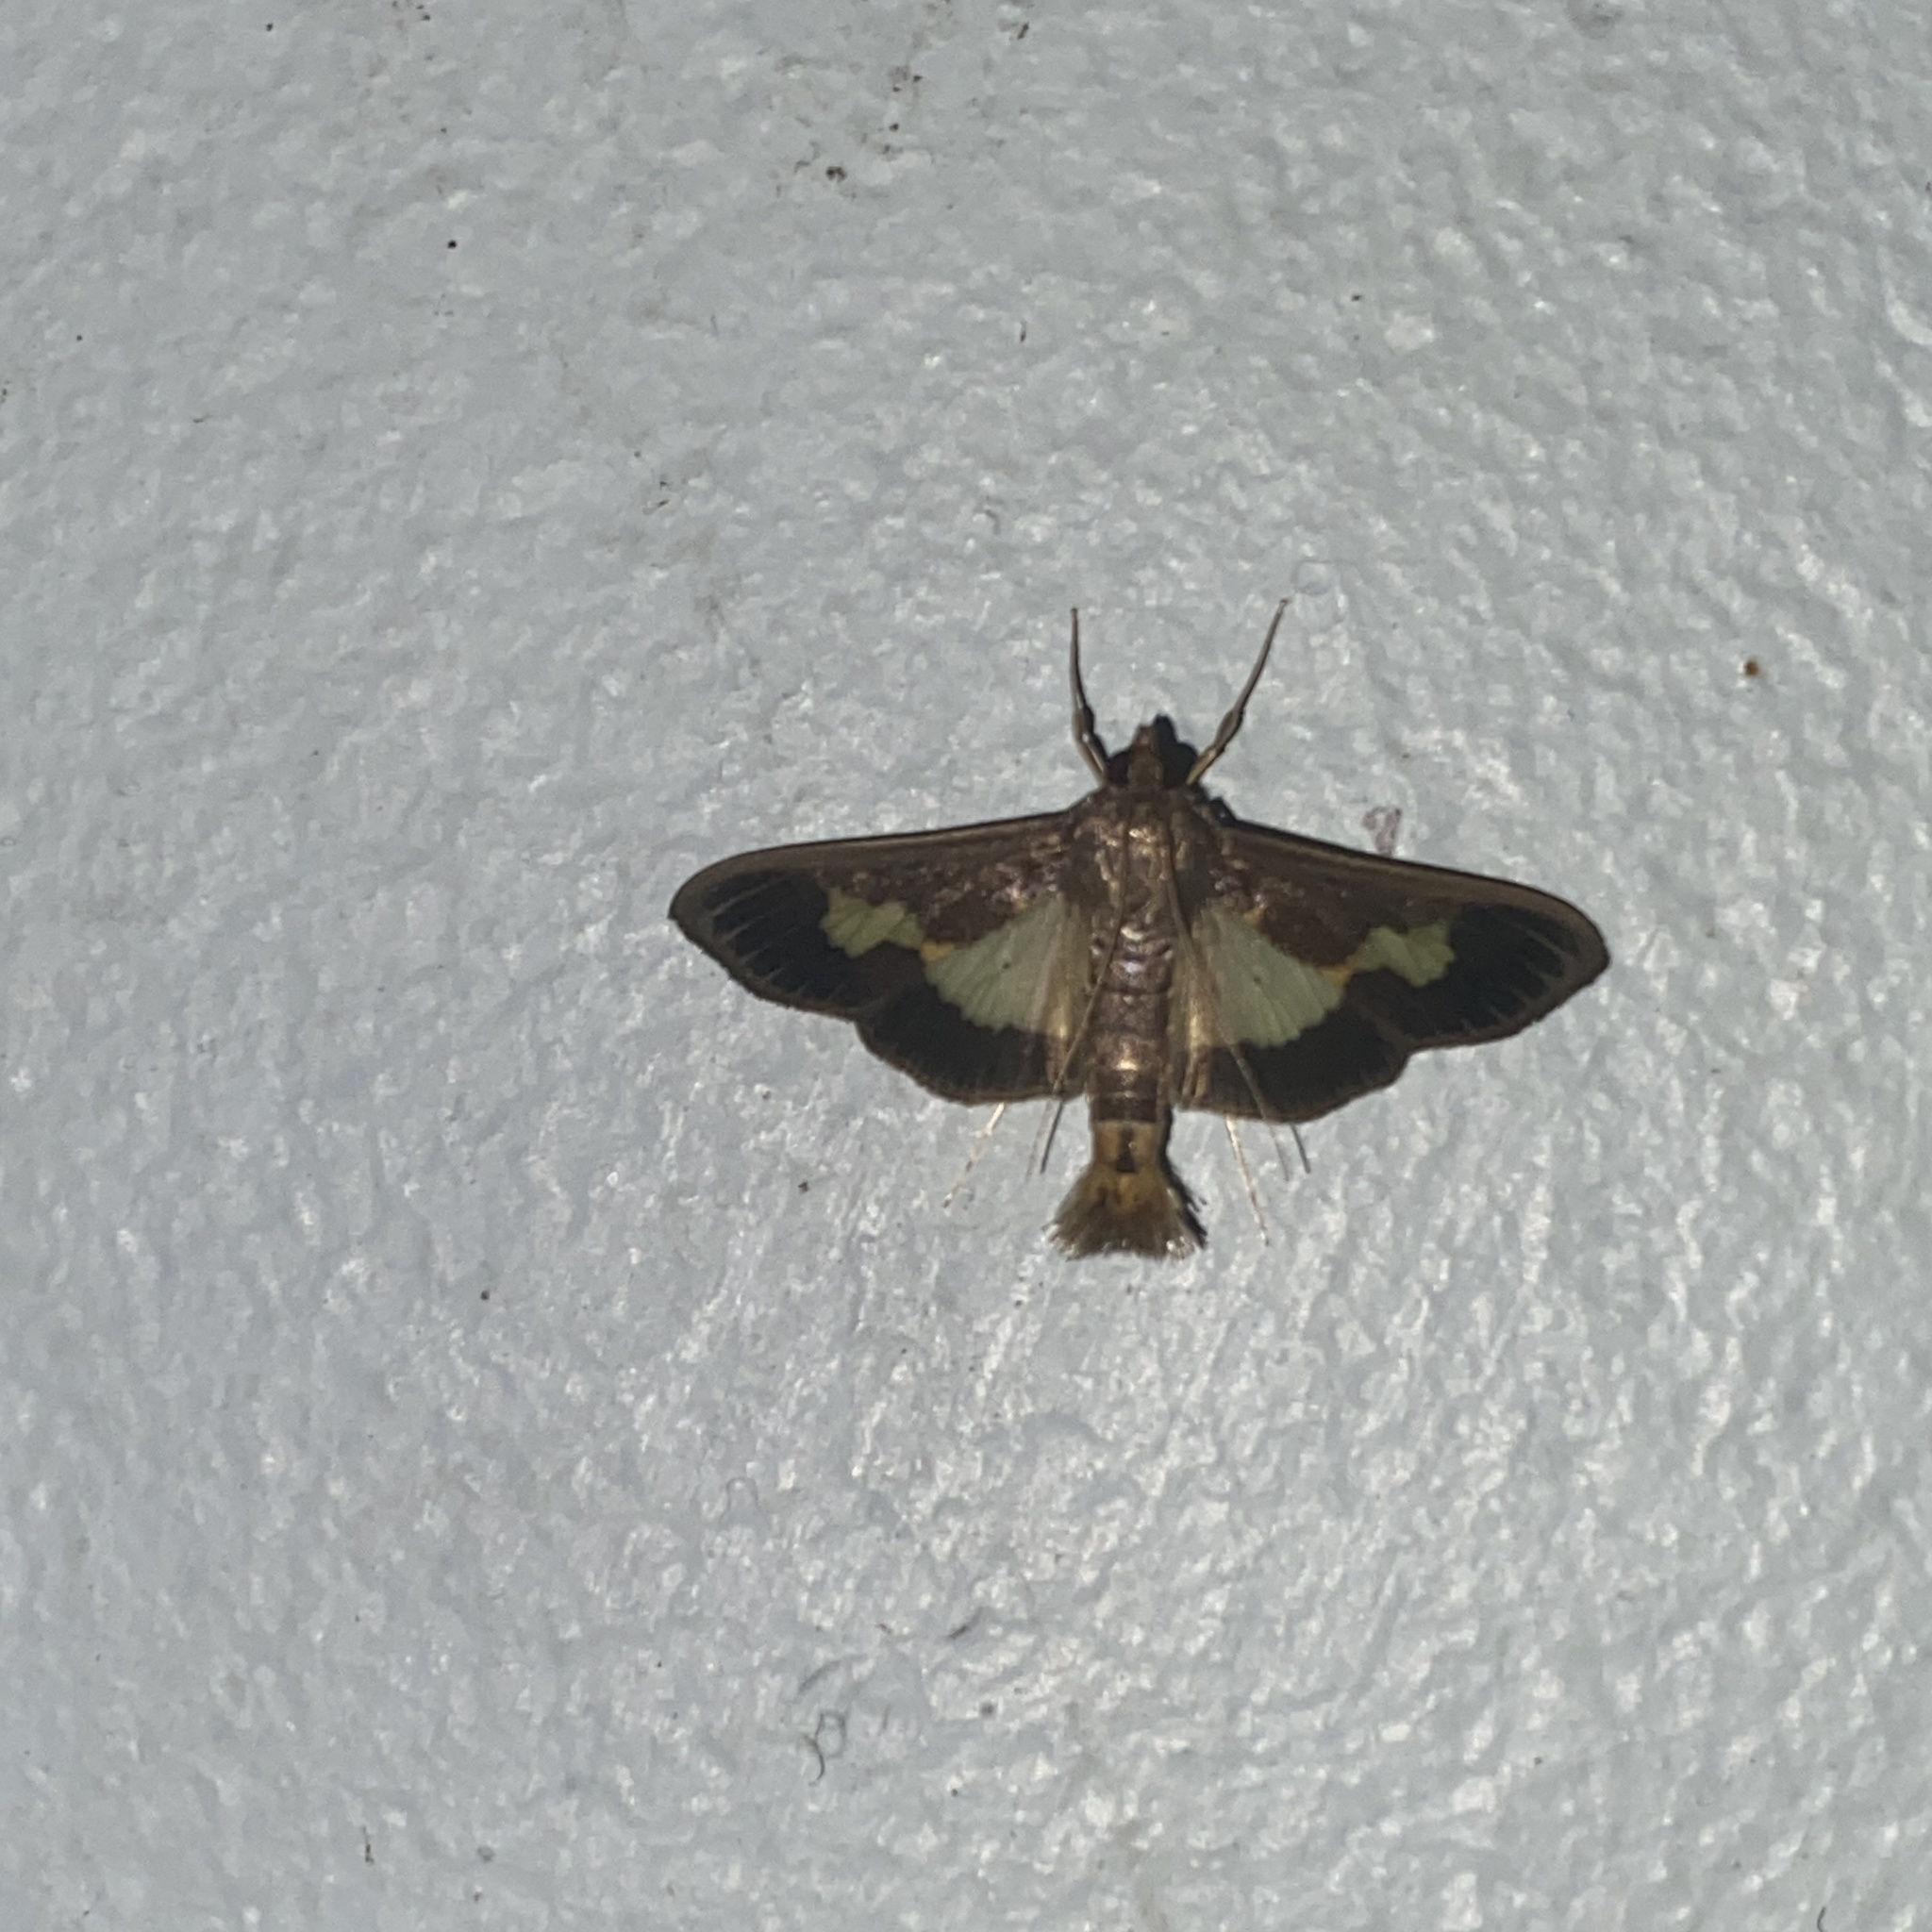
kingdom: Animalia
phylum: Arthropoda
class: Insecta
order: Lepidoptera
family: Crambidae
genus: Cryptographis
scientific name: Cryptographis nitidalis
